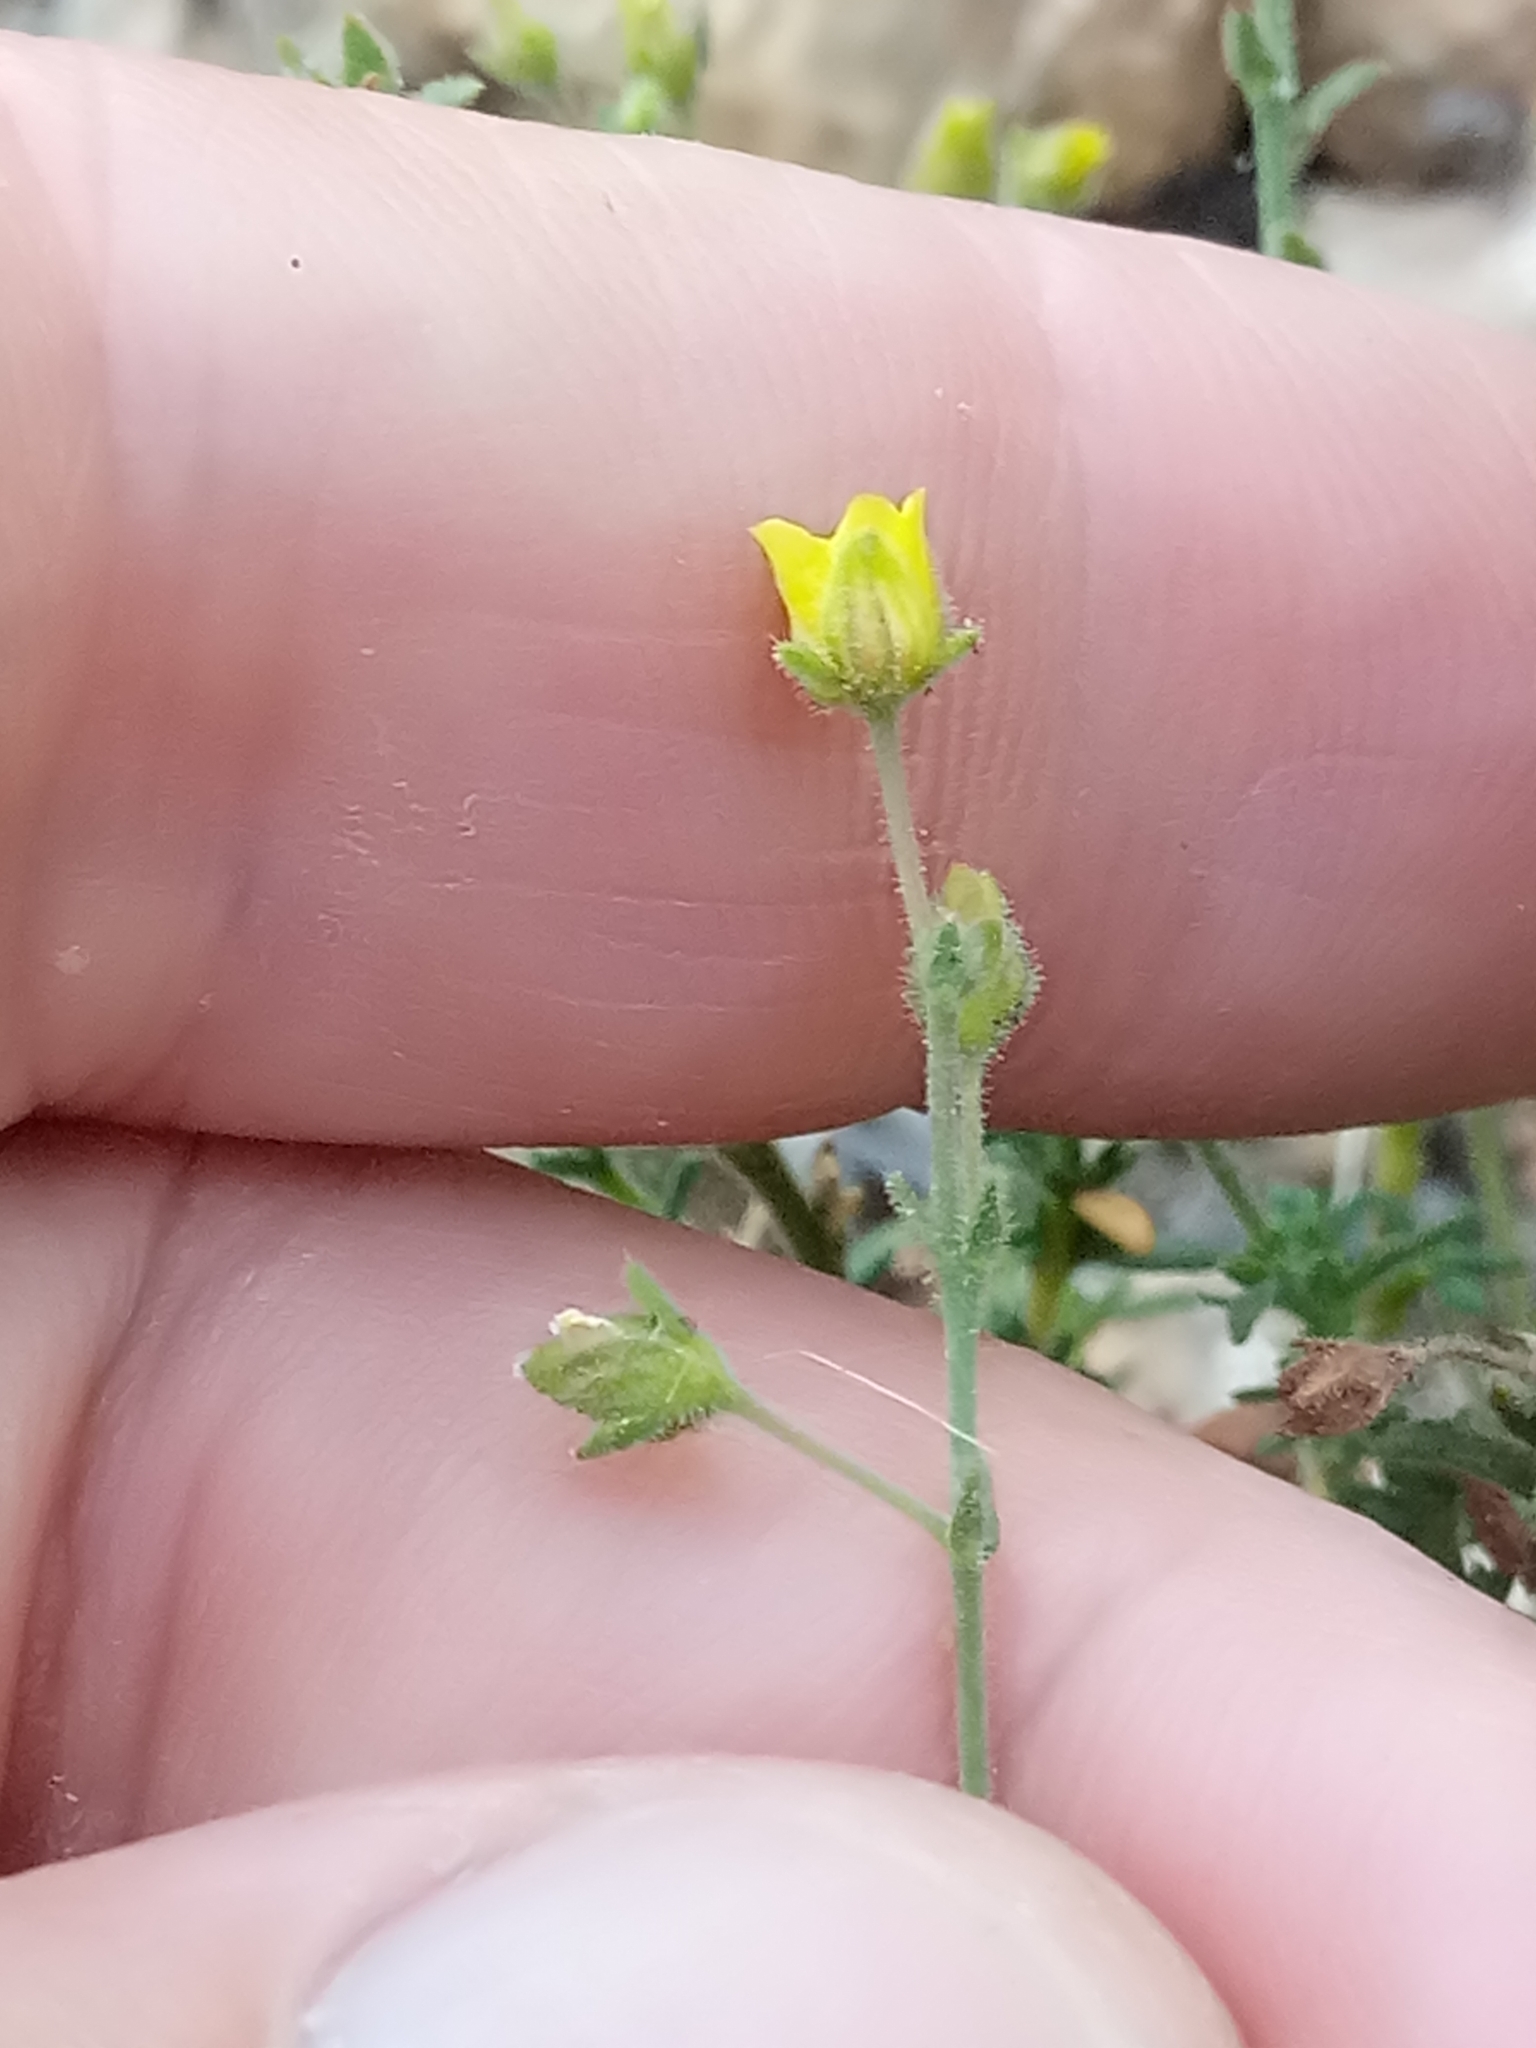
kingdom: Plantae
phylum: Tracheophyta
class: Magnoliopsida
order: Malvales
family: Cistaceae
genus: Fumana
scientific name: Fumana thymifolia
